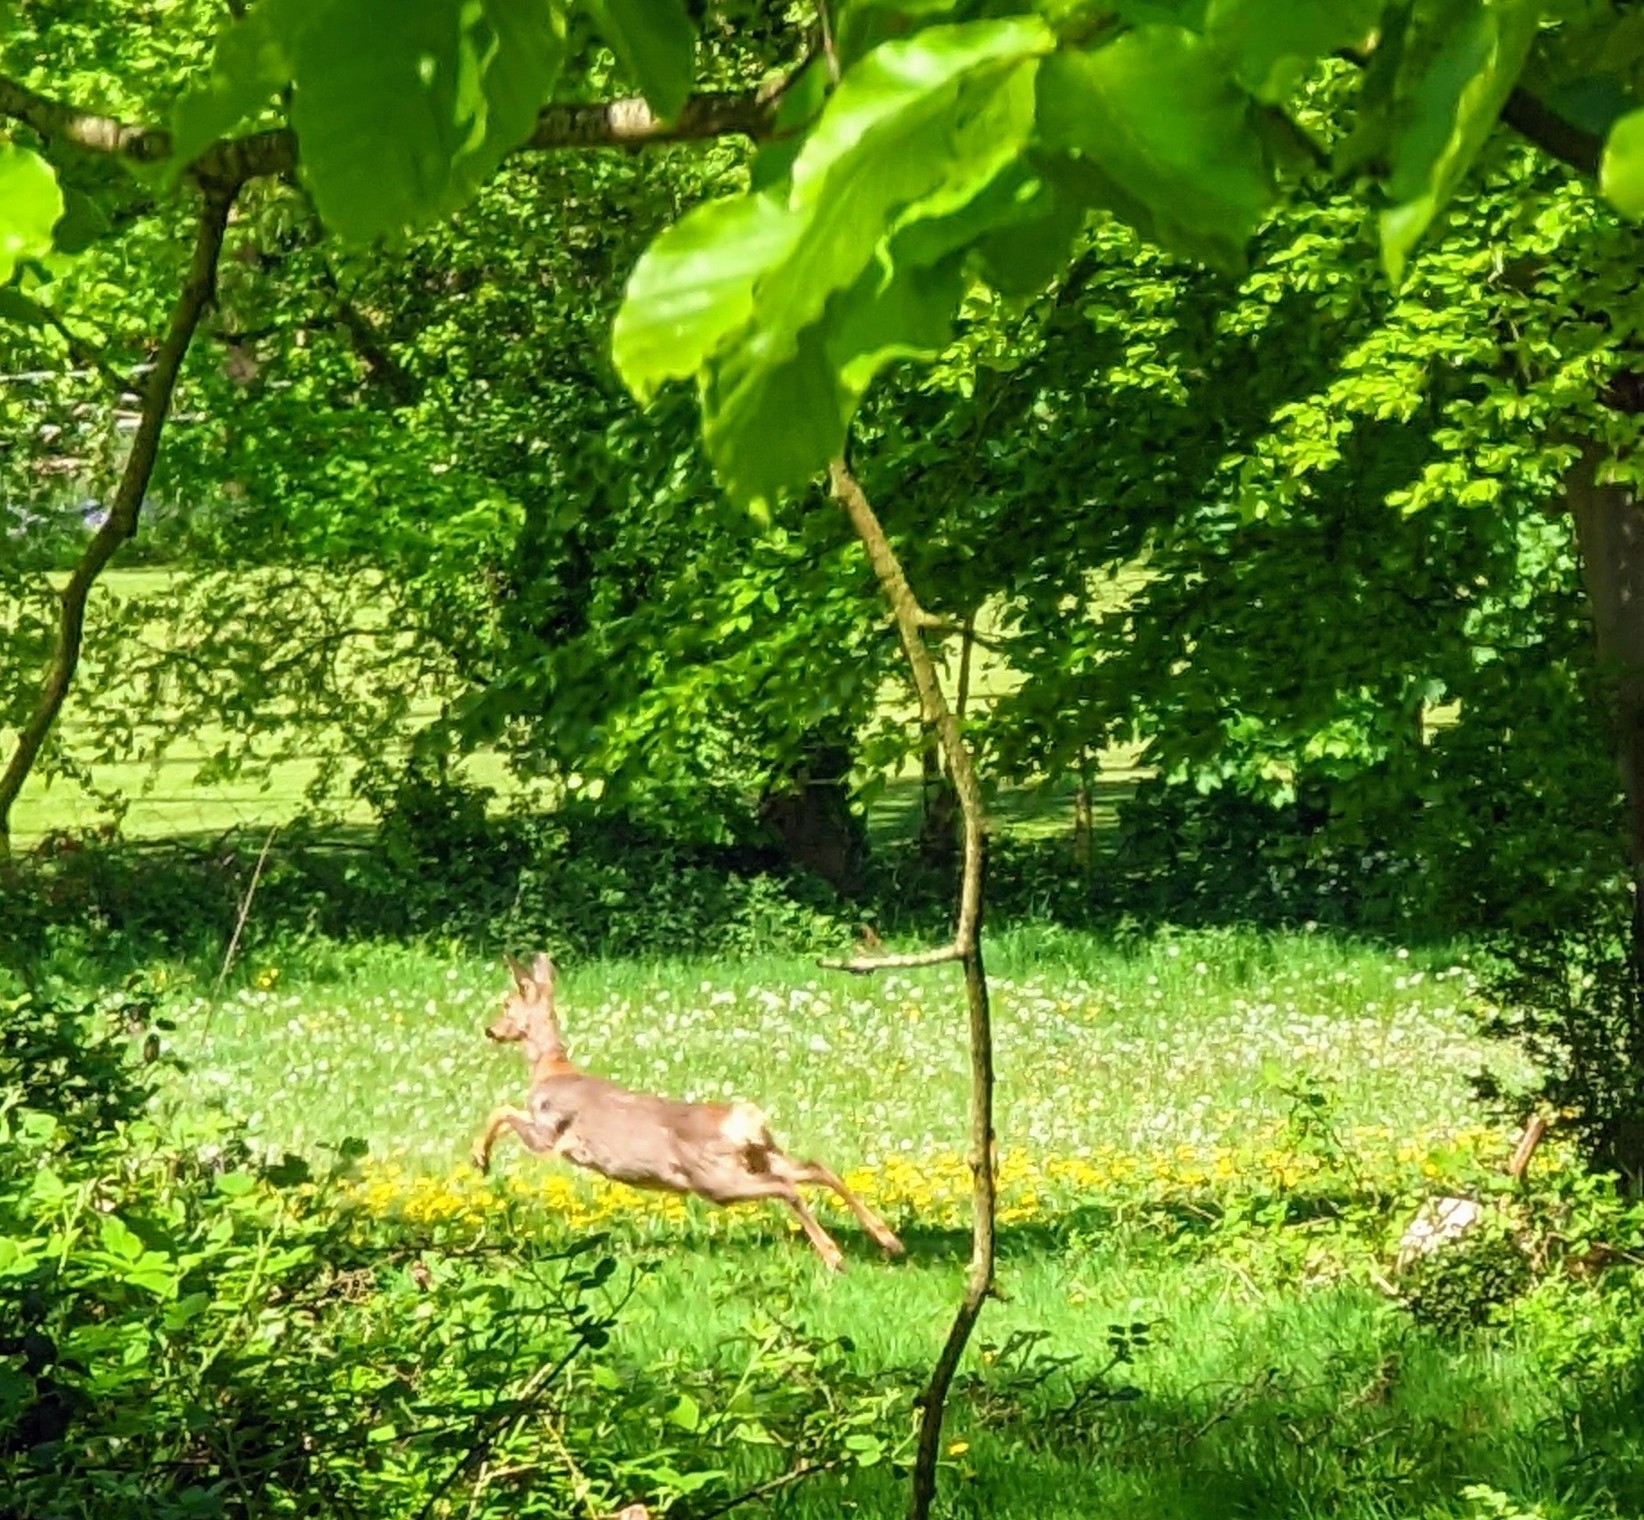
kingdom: Animalia
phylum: Chordata
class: Mammalia
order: Artiodactyla
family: Cervidae
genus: Capreolus
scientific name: Capreolus capreolus
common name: Western roe deer
